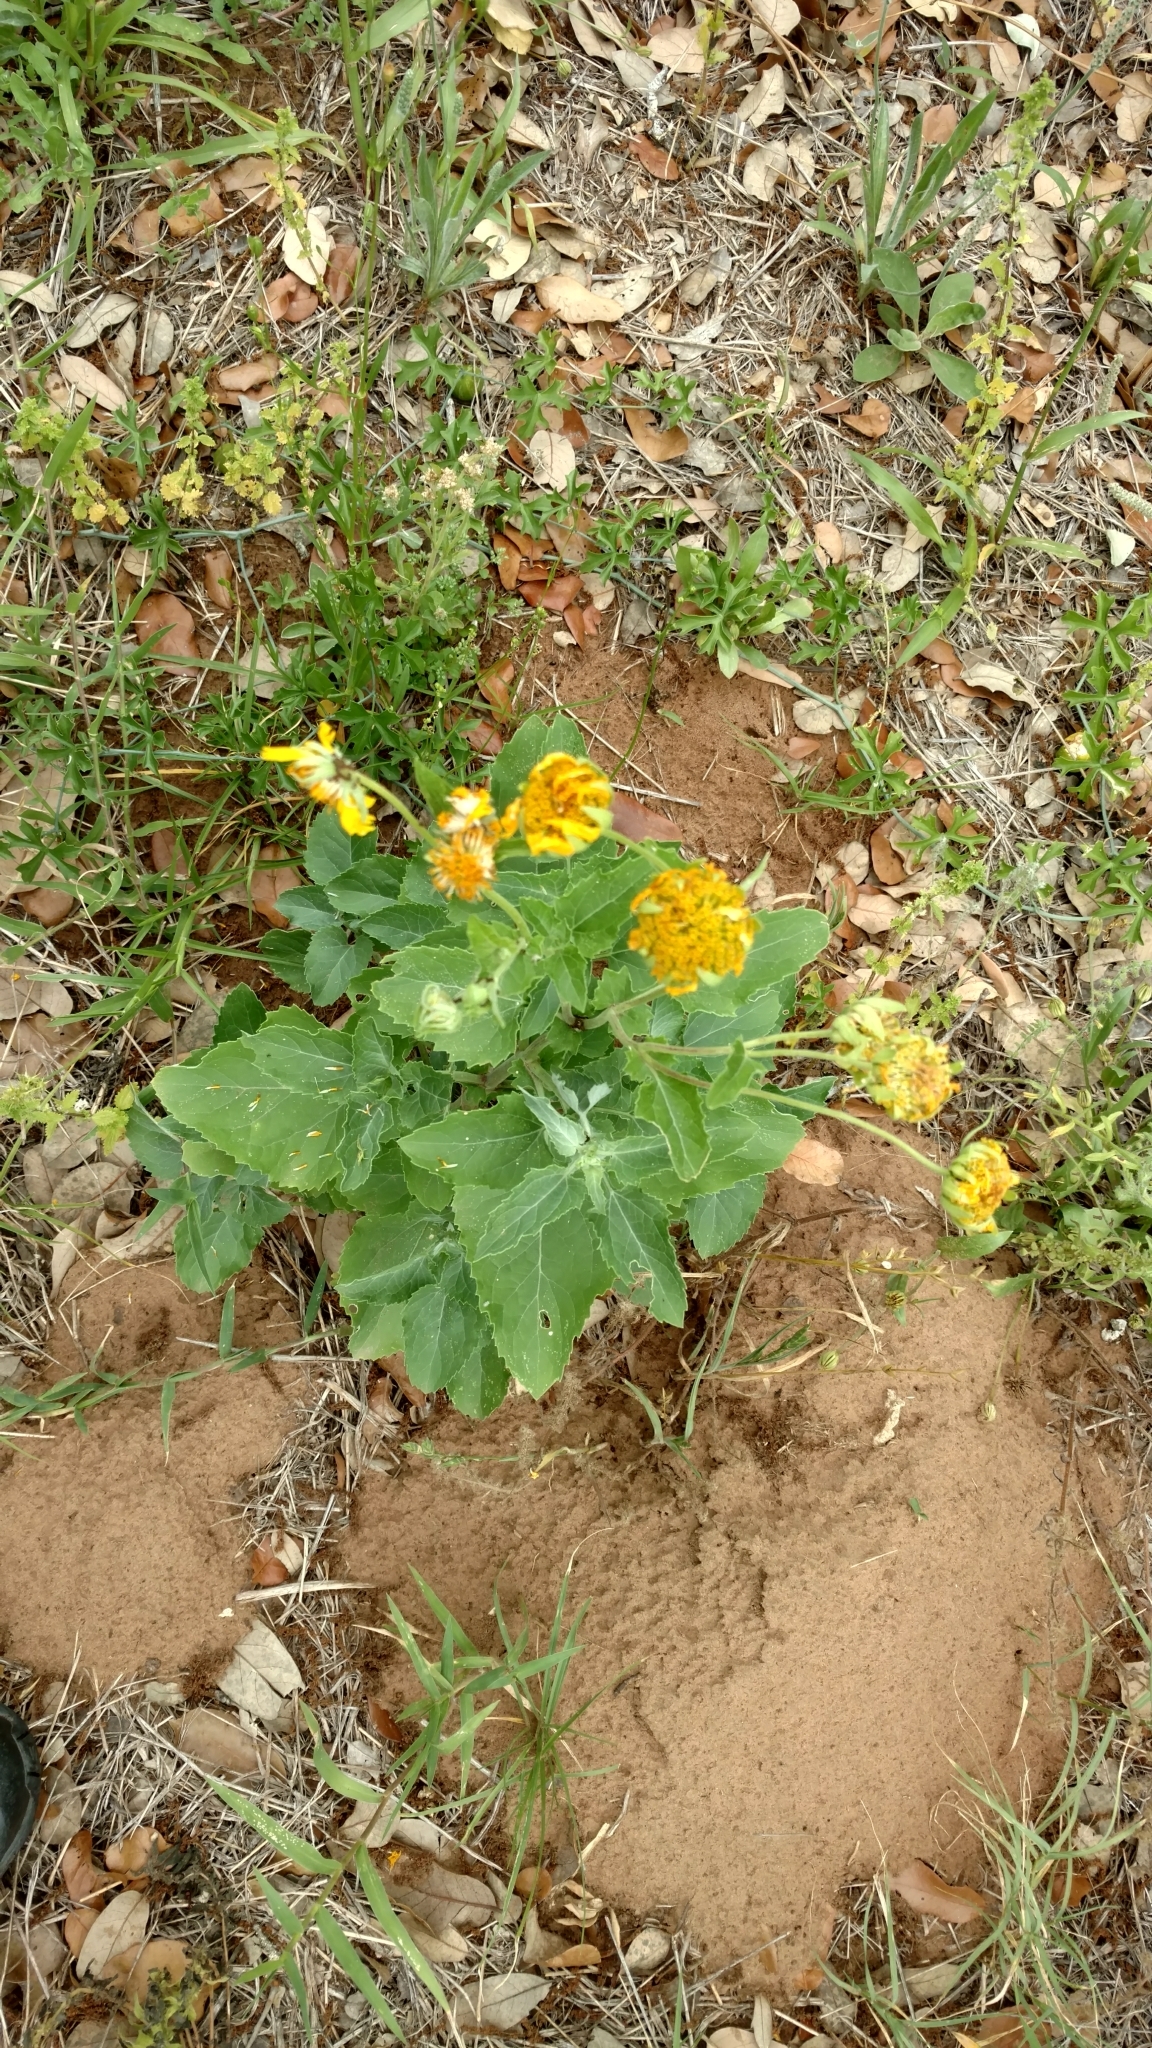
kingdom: Plantae
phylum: Tracheophyta
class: Magnoliopsida
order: Asterales
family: Asteraceae
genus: Verbesina
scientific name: Verbesina encelioides
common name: Golden crownbeard
